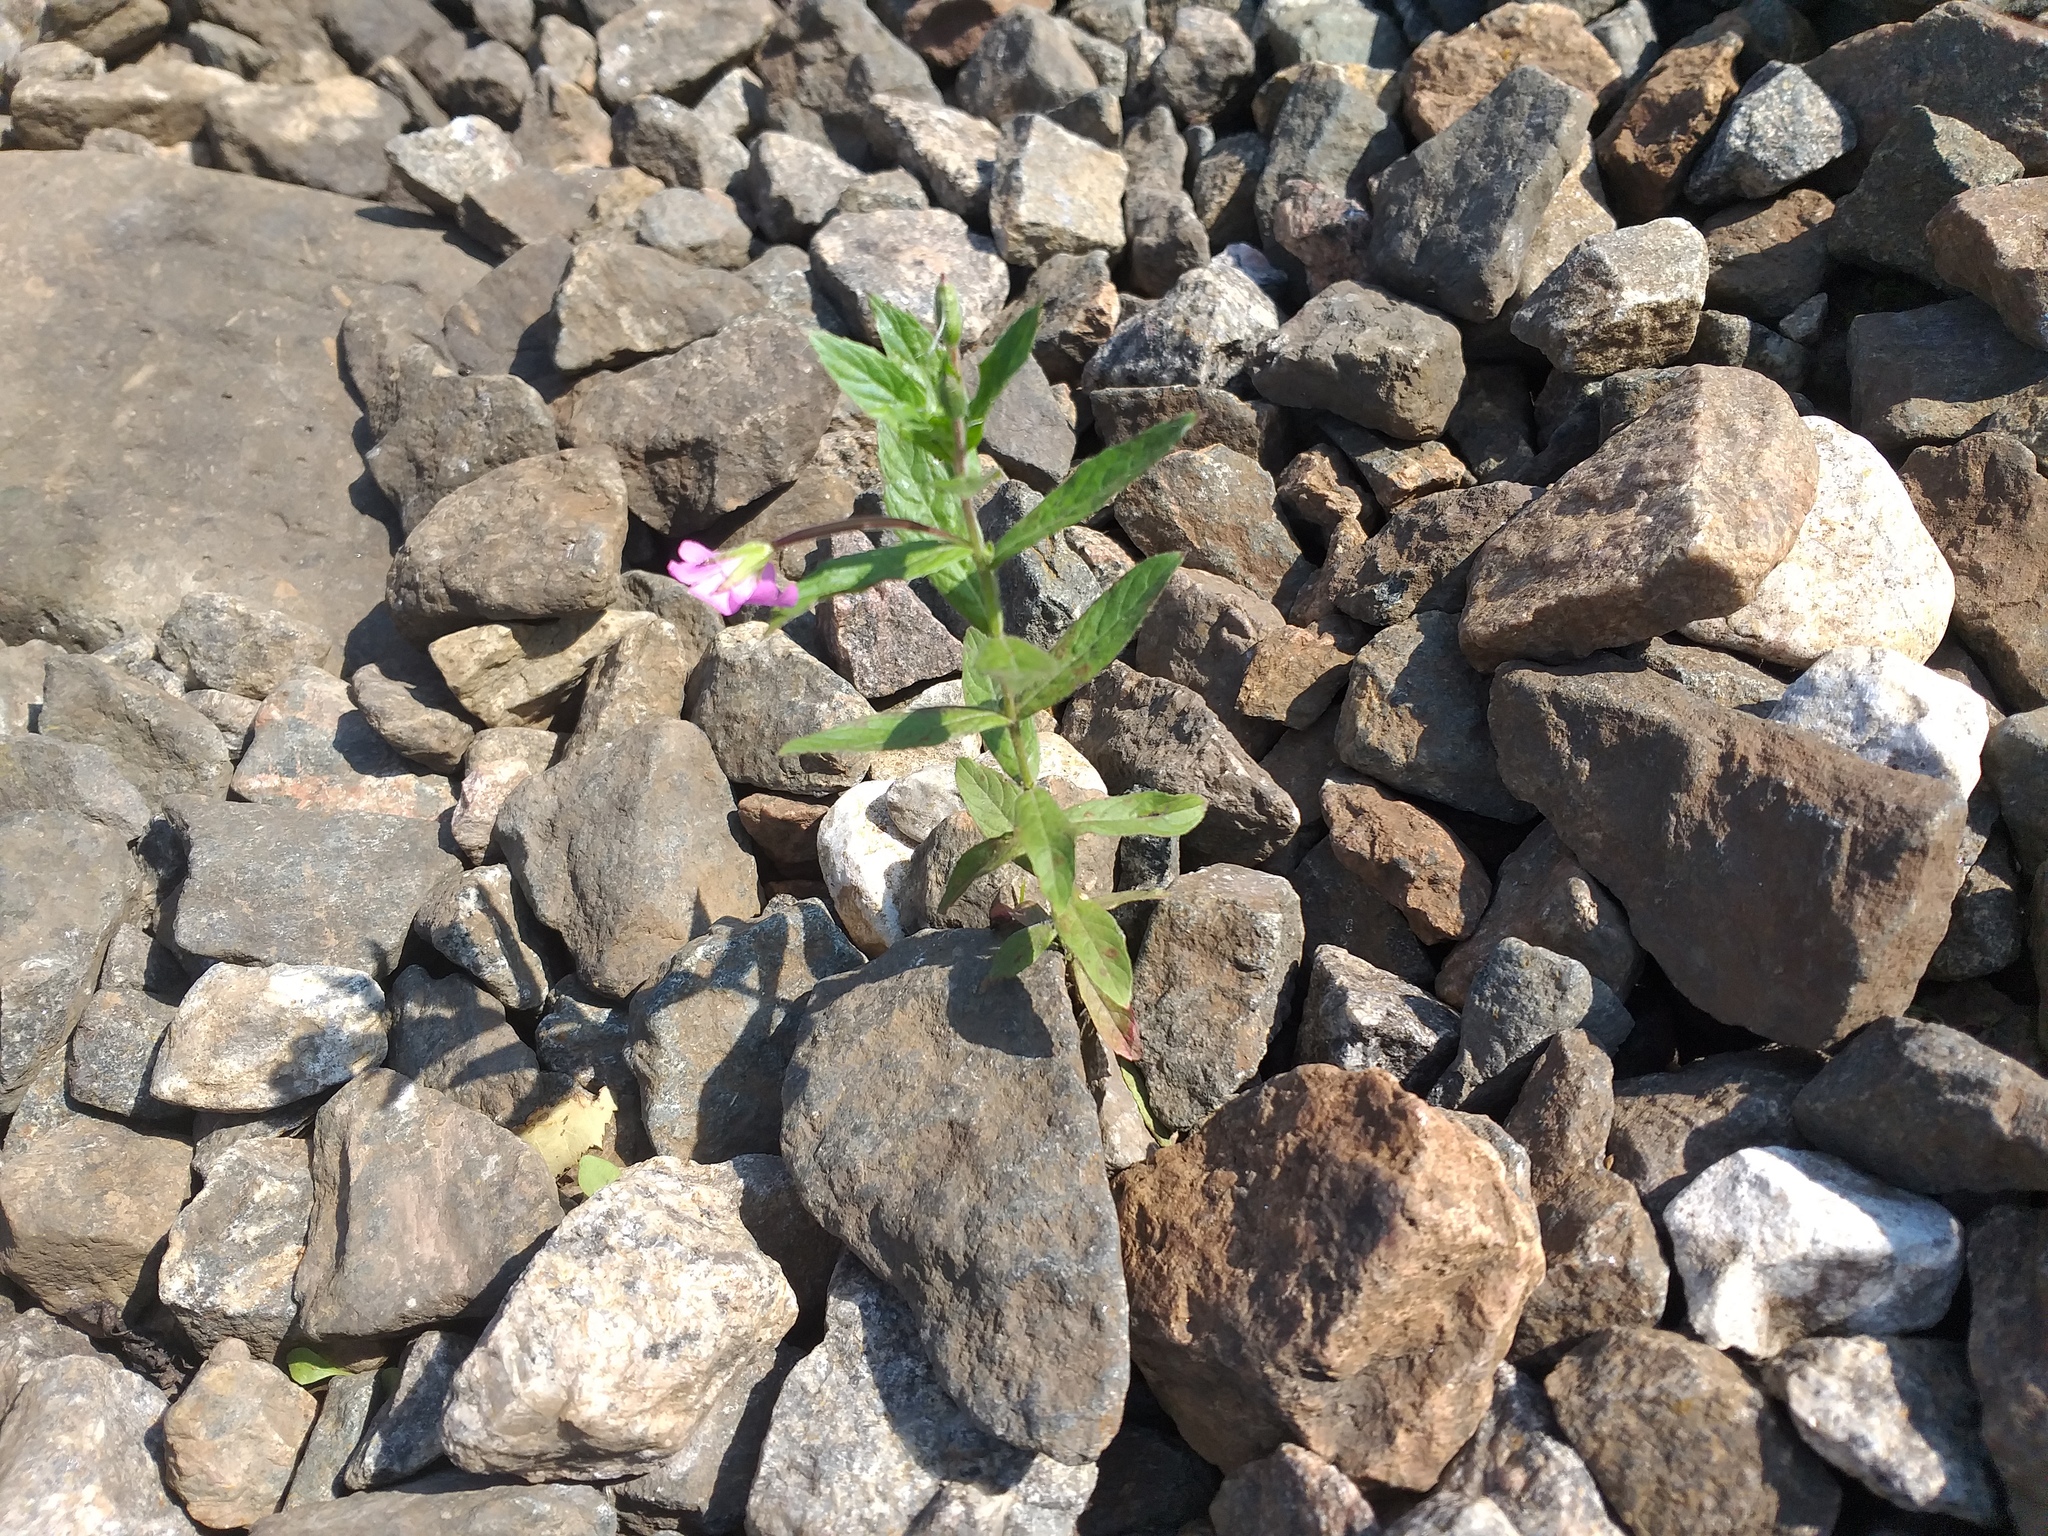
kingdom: Plantae
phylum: Tracheophyta
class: Magnoliopsida
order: Myrtales
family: Onagraceae
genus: Epilobium
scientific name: Epilobium hirsutum
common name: Great willowherb
